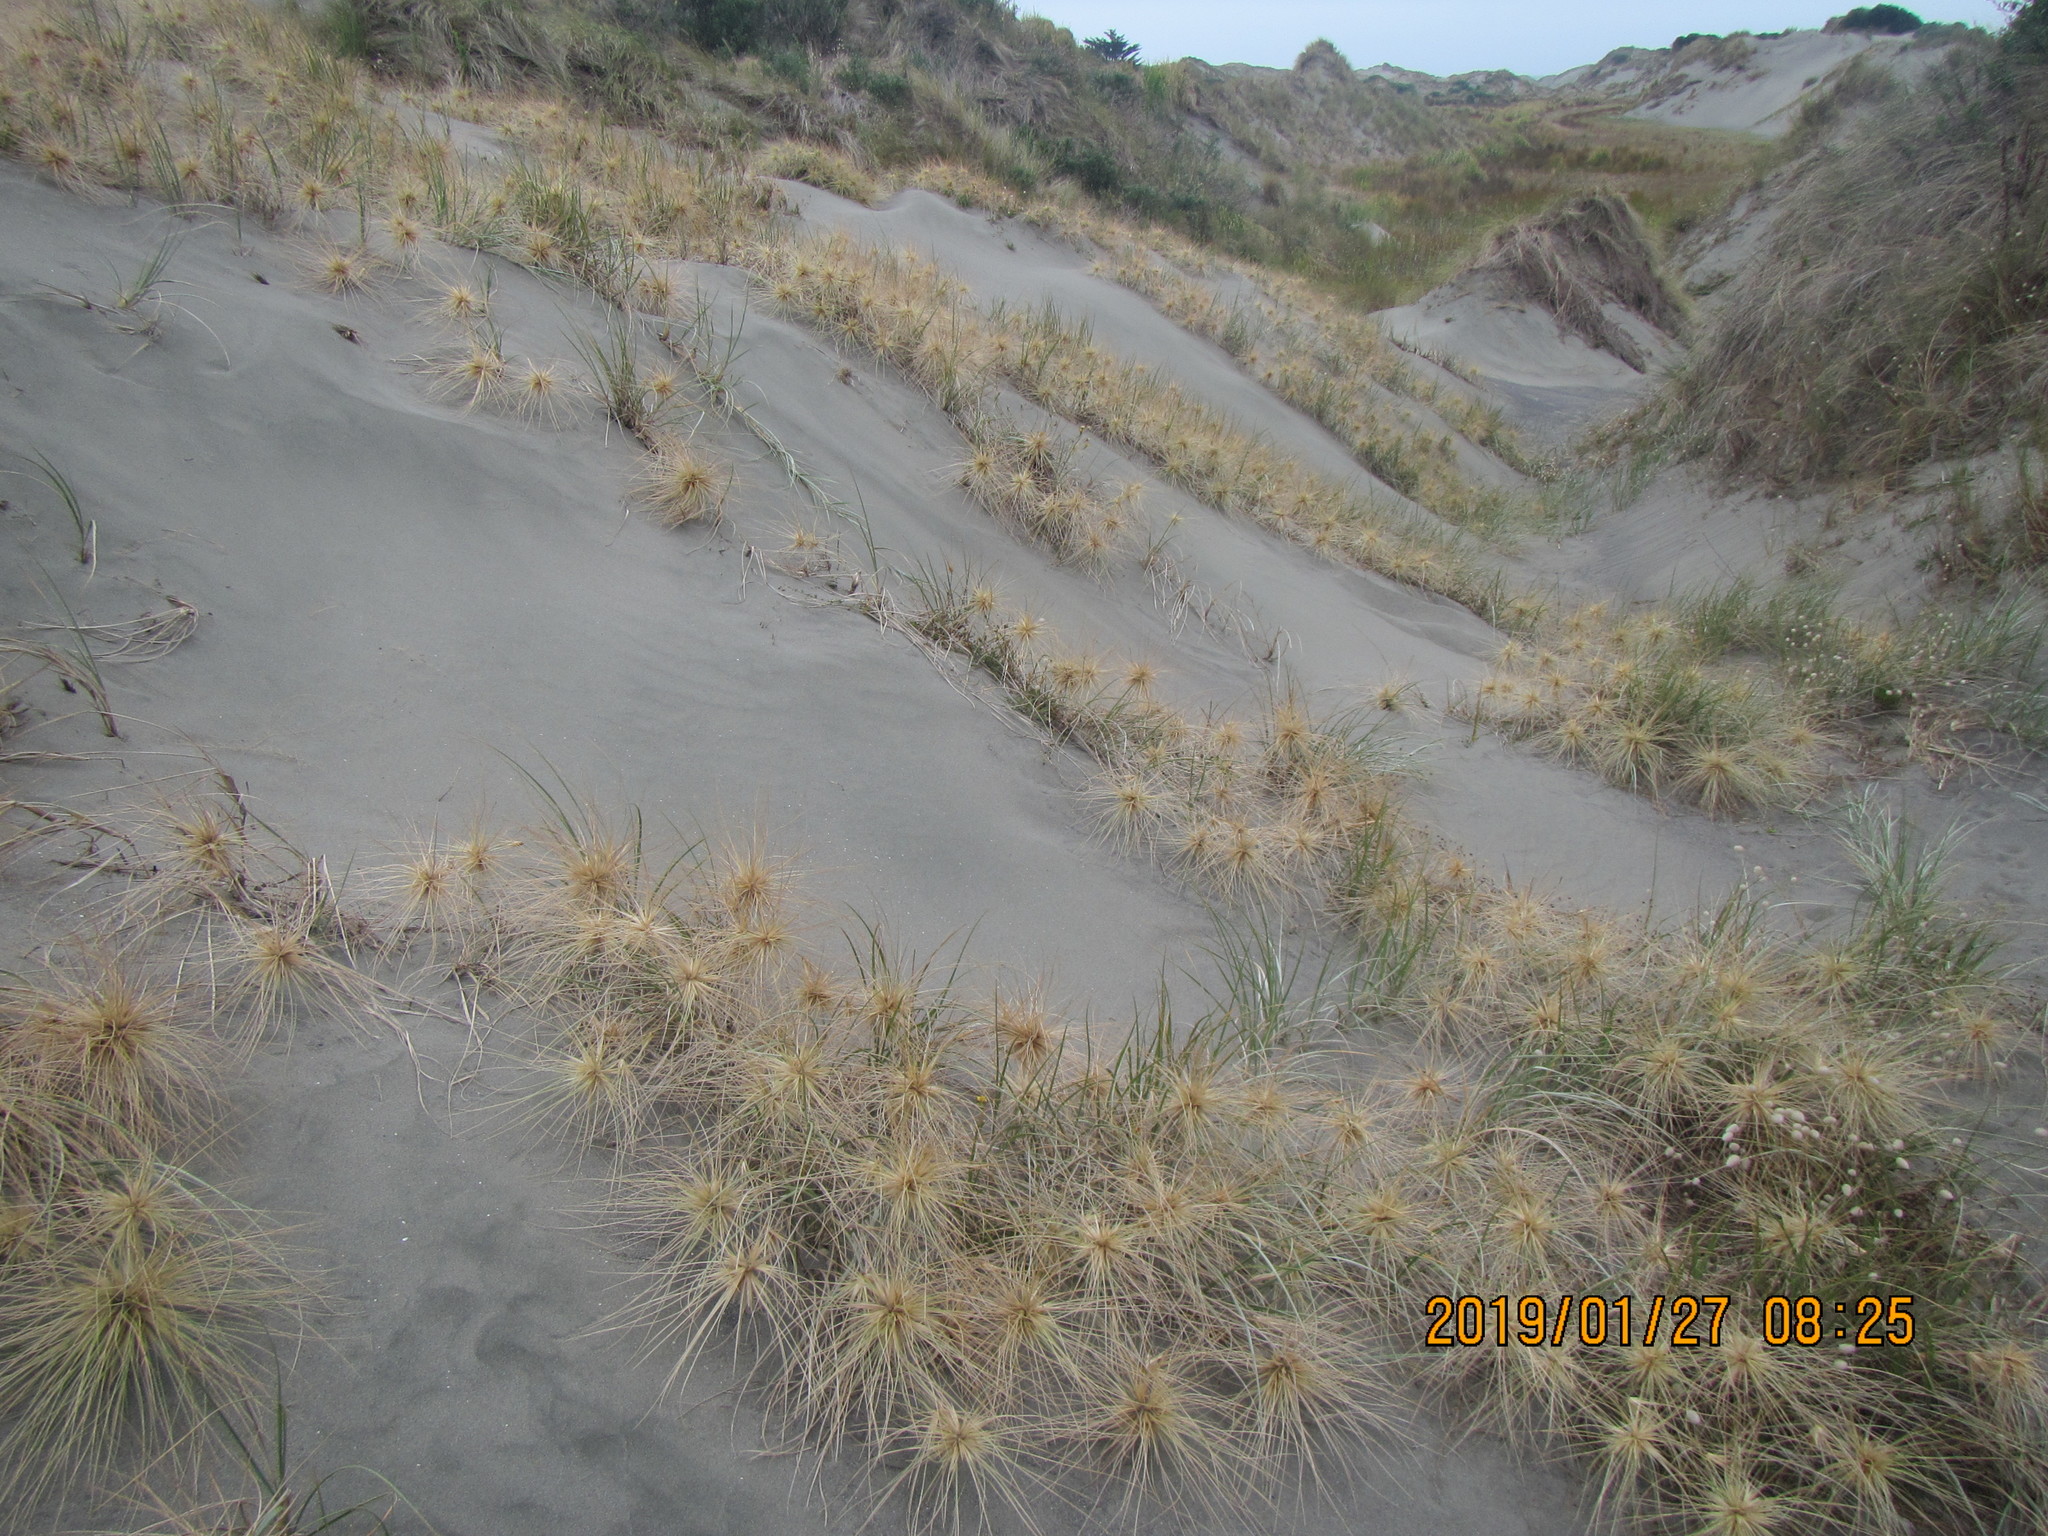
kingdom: Plantae
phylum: Tracheophyta
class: Liliopsida
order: Poales
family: Poaceae
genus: Spinifex
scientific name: Spinifex sericeus
